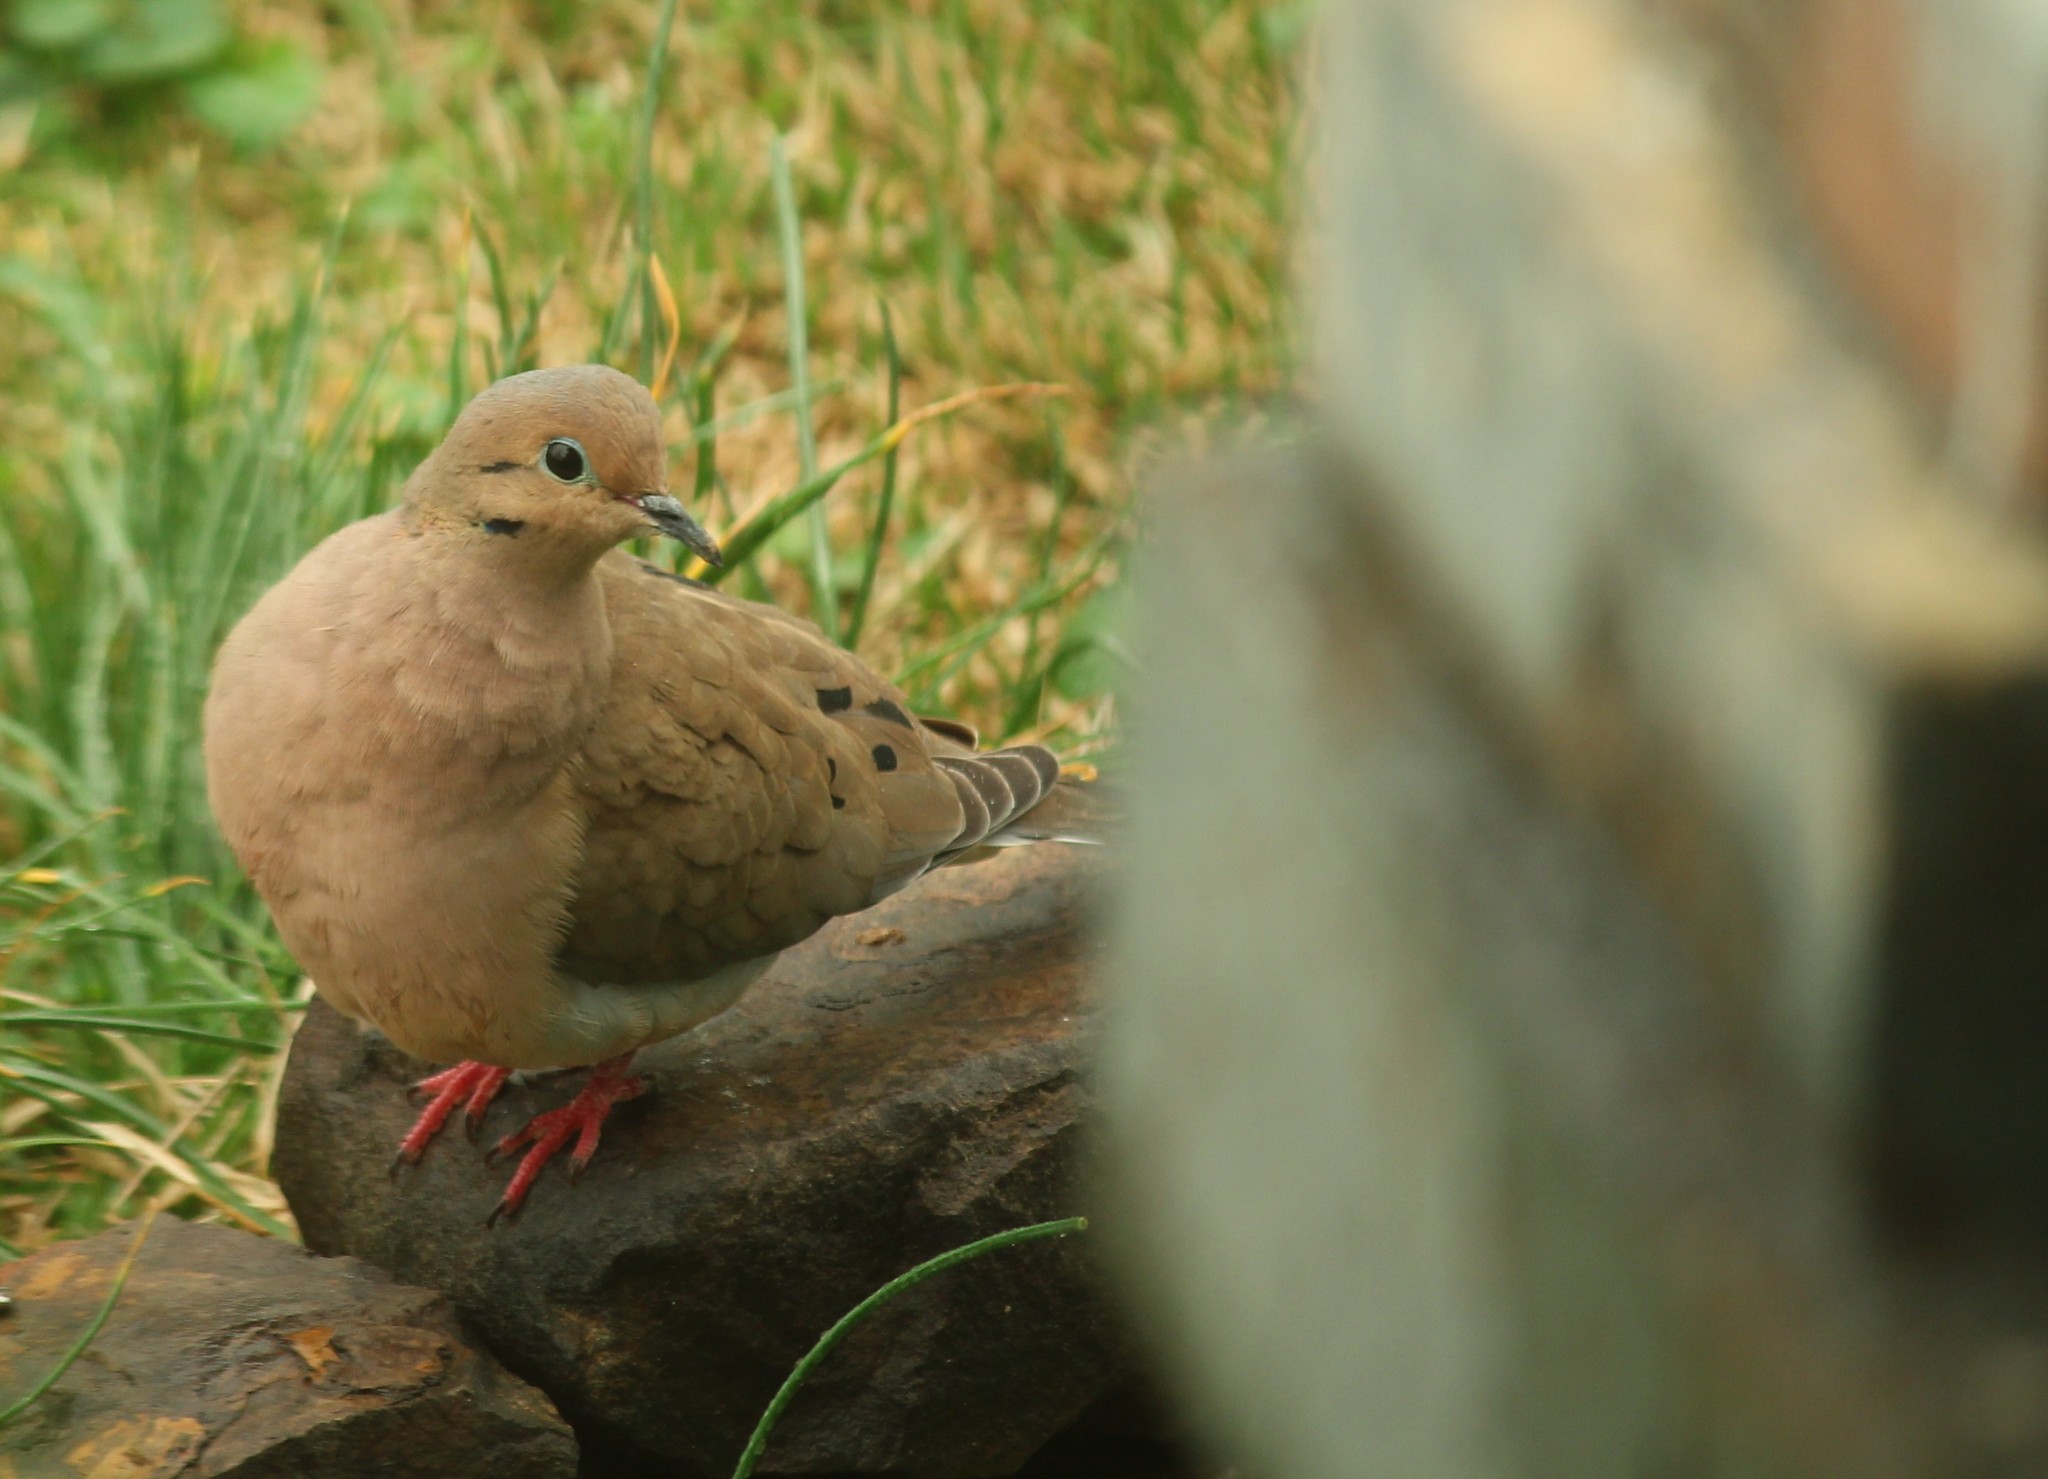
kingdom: Animalia
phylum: Chordata
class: Aves
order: Columbiformes
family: Columbidae
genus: Zenaida
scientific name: Zenaida macroura
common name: Mourning dove
